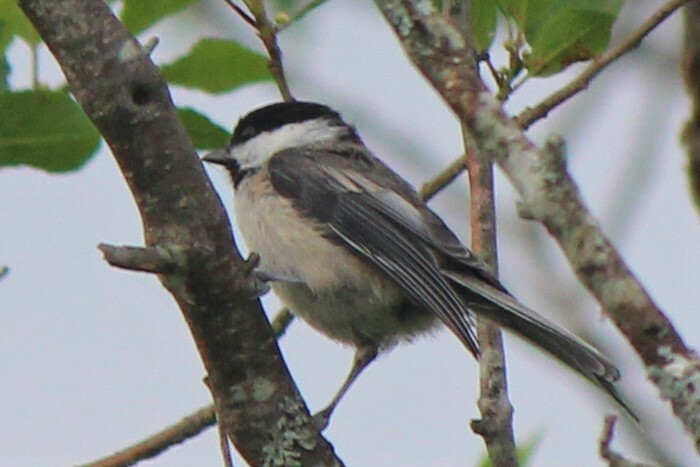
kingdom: Animalia
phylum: Chordata
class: Aves
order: Passeriformes
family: Paridae
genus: Poecile
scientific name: Poecile atricapillus
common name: Black-capped chickadee
